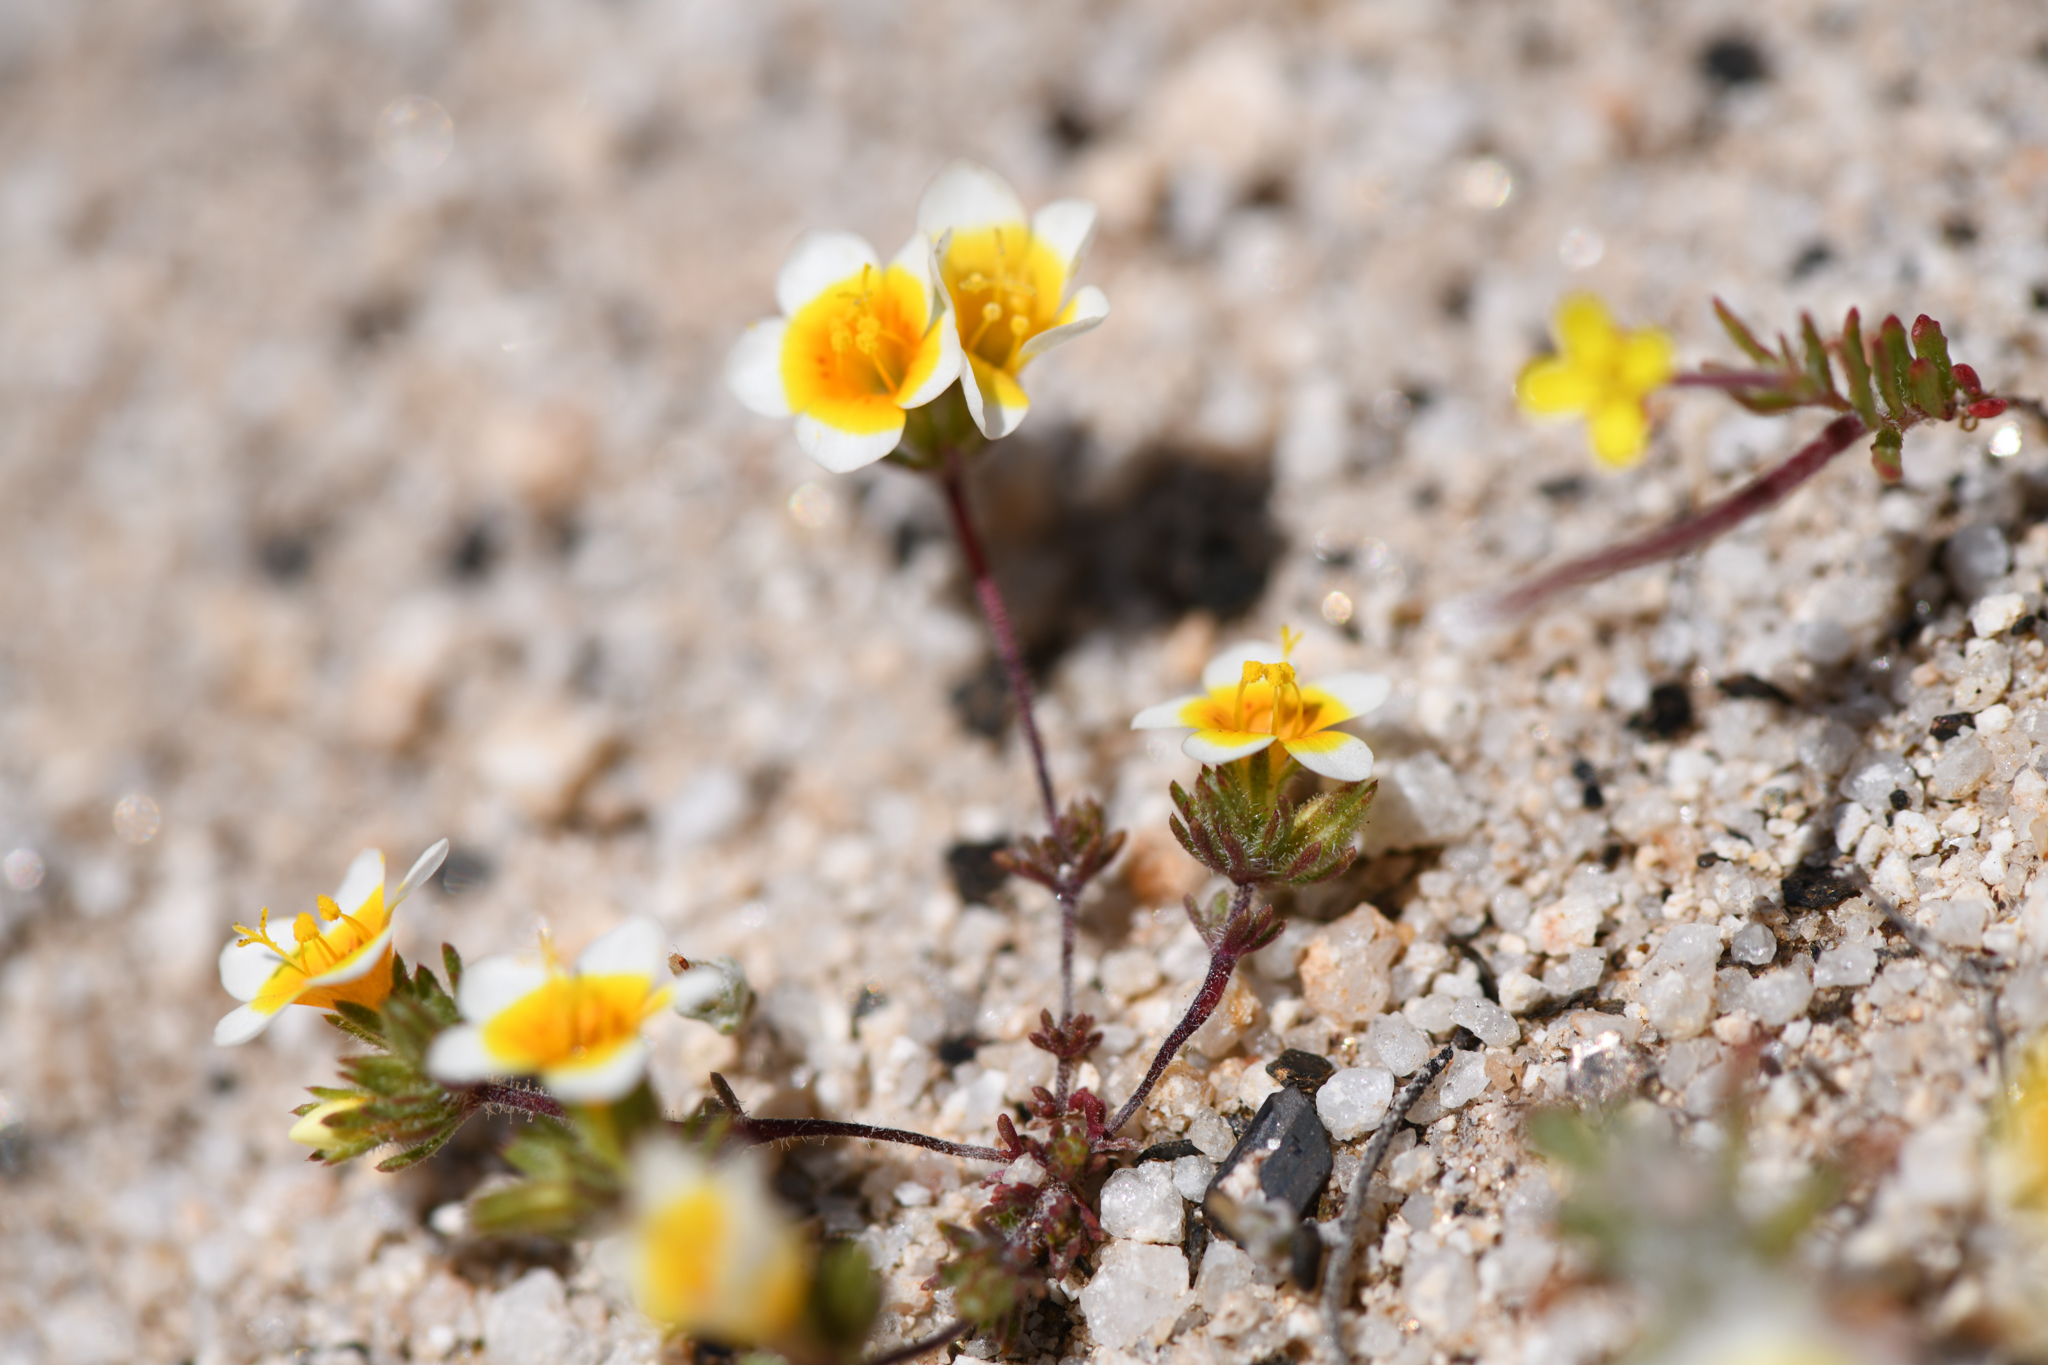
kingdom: Plantae
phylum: Tracheophyta
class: Magnoliopsida
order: Ericales
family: Polemoniaceae
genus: Leptosiphon
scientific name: Leptosiphon lemmonii
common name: Lemmon's linanthus
